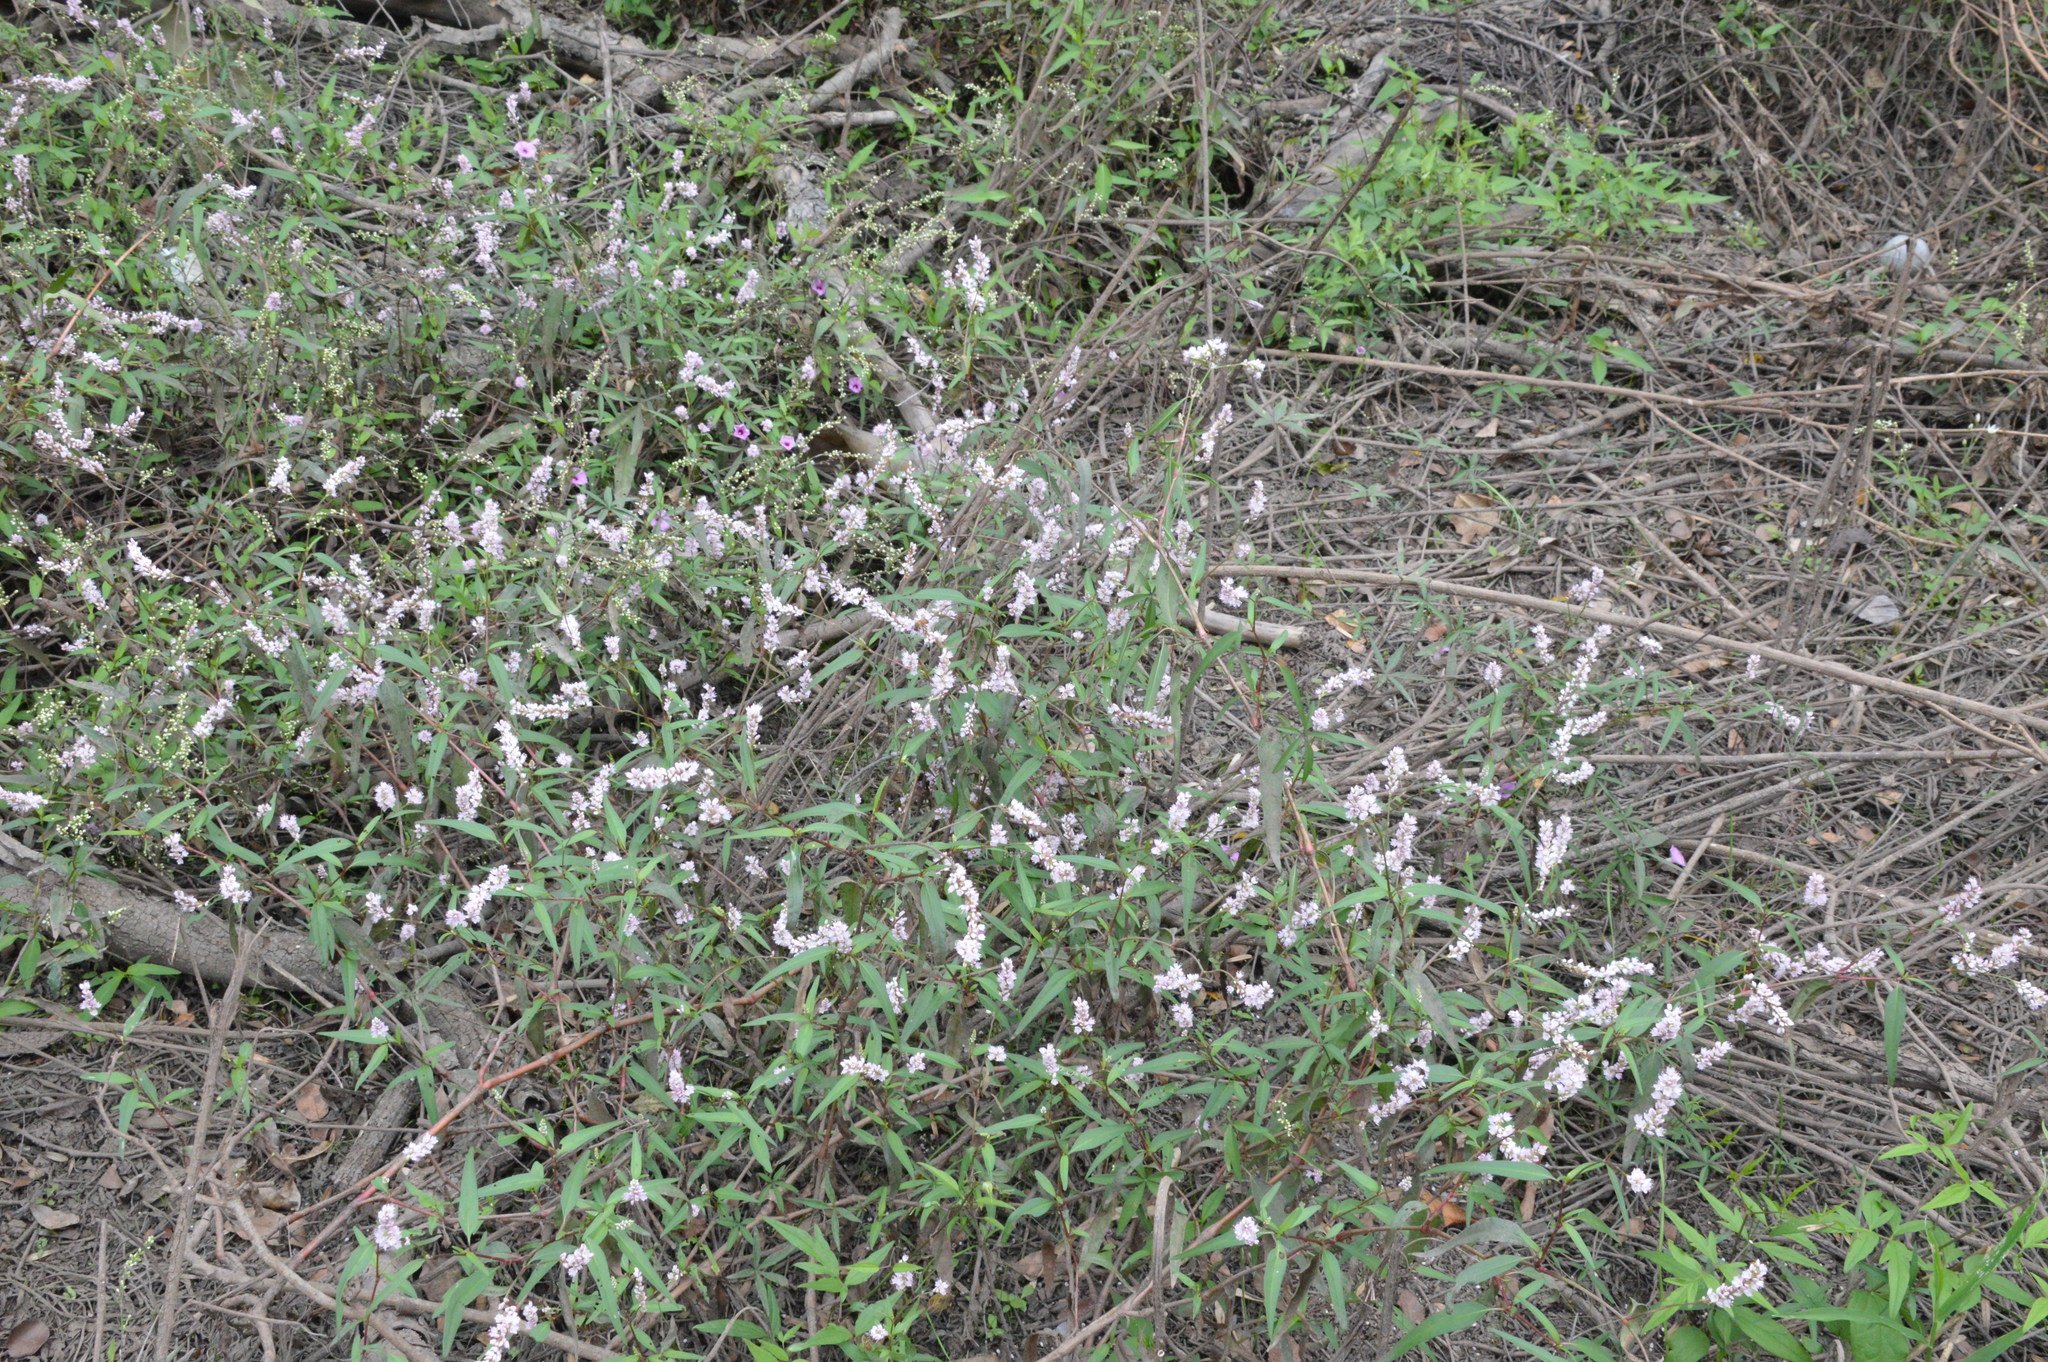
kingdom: Plantae
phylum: Tracheophyta
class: Magnoliopsida
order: Caryophyllales
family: Polygonaceae
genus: Persicaria
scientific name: Persicaria bicornis
